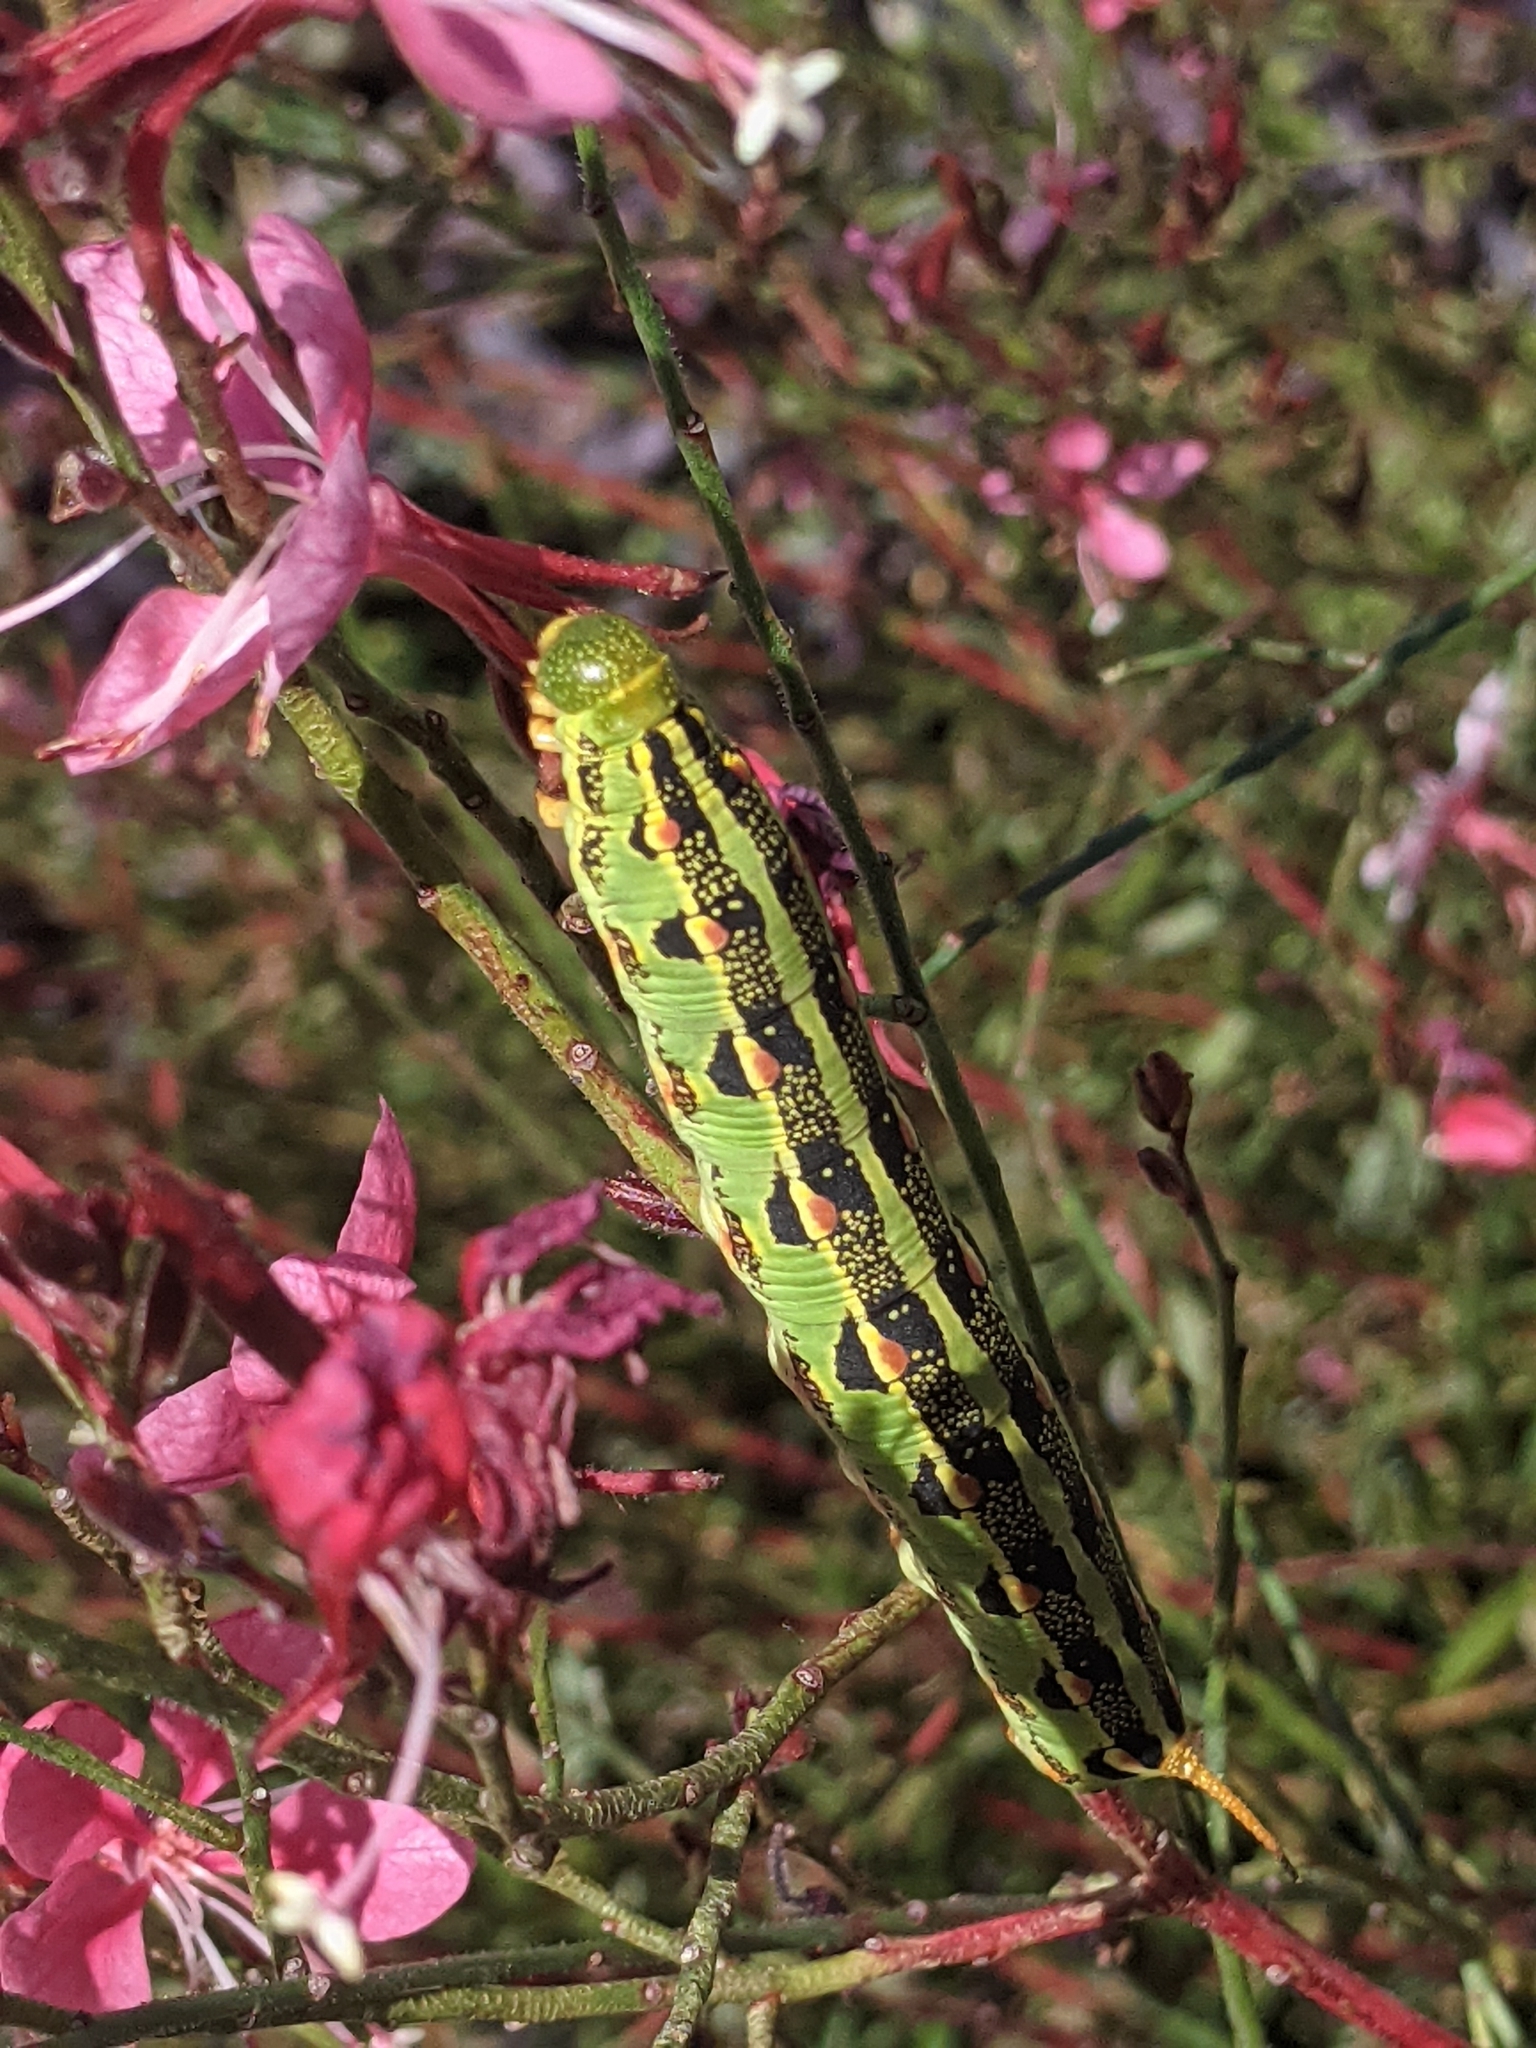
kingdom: Animalia
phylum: Arthropoda
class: Insecta
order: Lepidoptera
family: Sphingidae
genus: Hyles
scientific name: Hyles lineata
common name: White-lined sphinx
